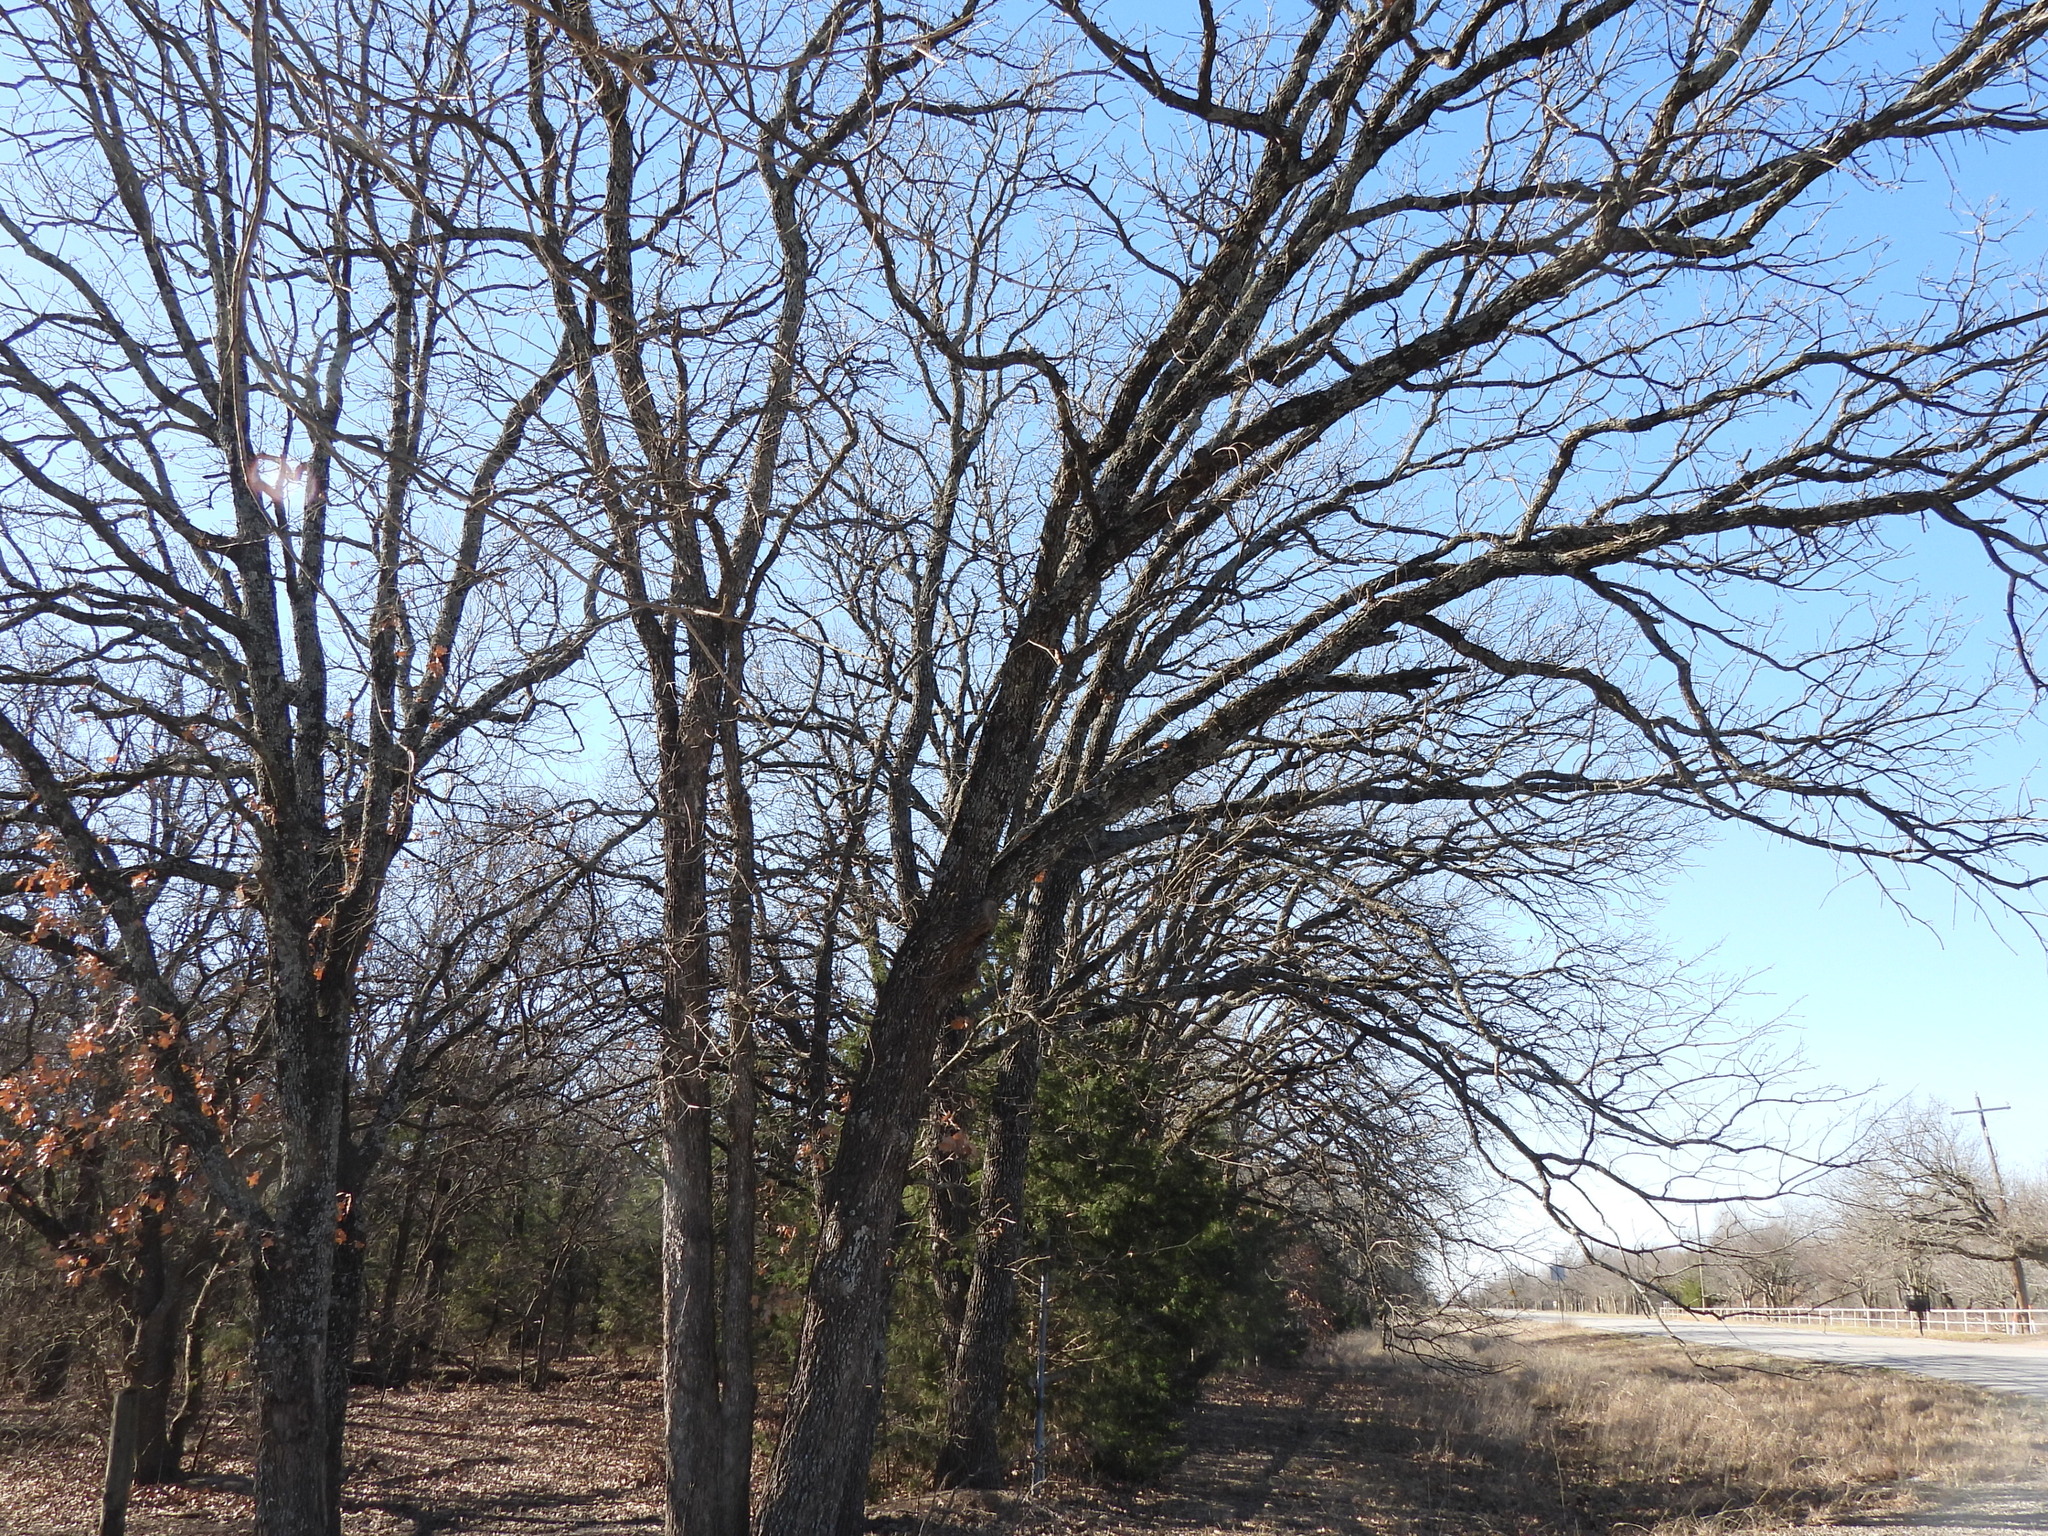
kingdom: Plantae
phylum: Tracheophyta
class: Magnoliopsida
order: Fagales
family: Fagaceae
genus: Quercus
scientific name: Quercus stellata
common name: Post oak
